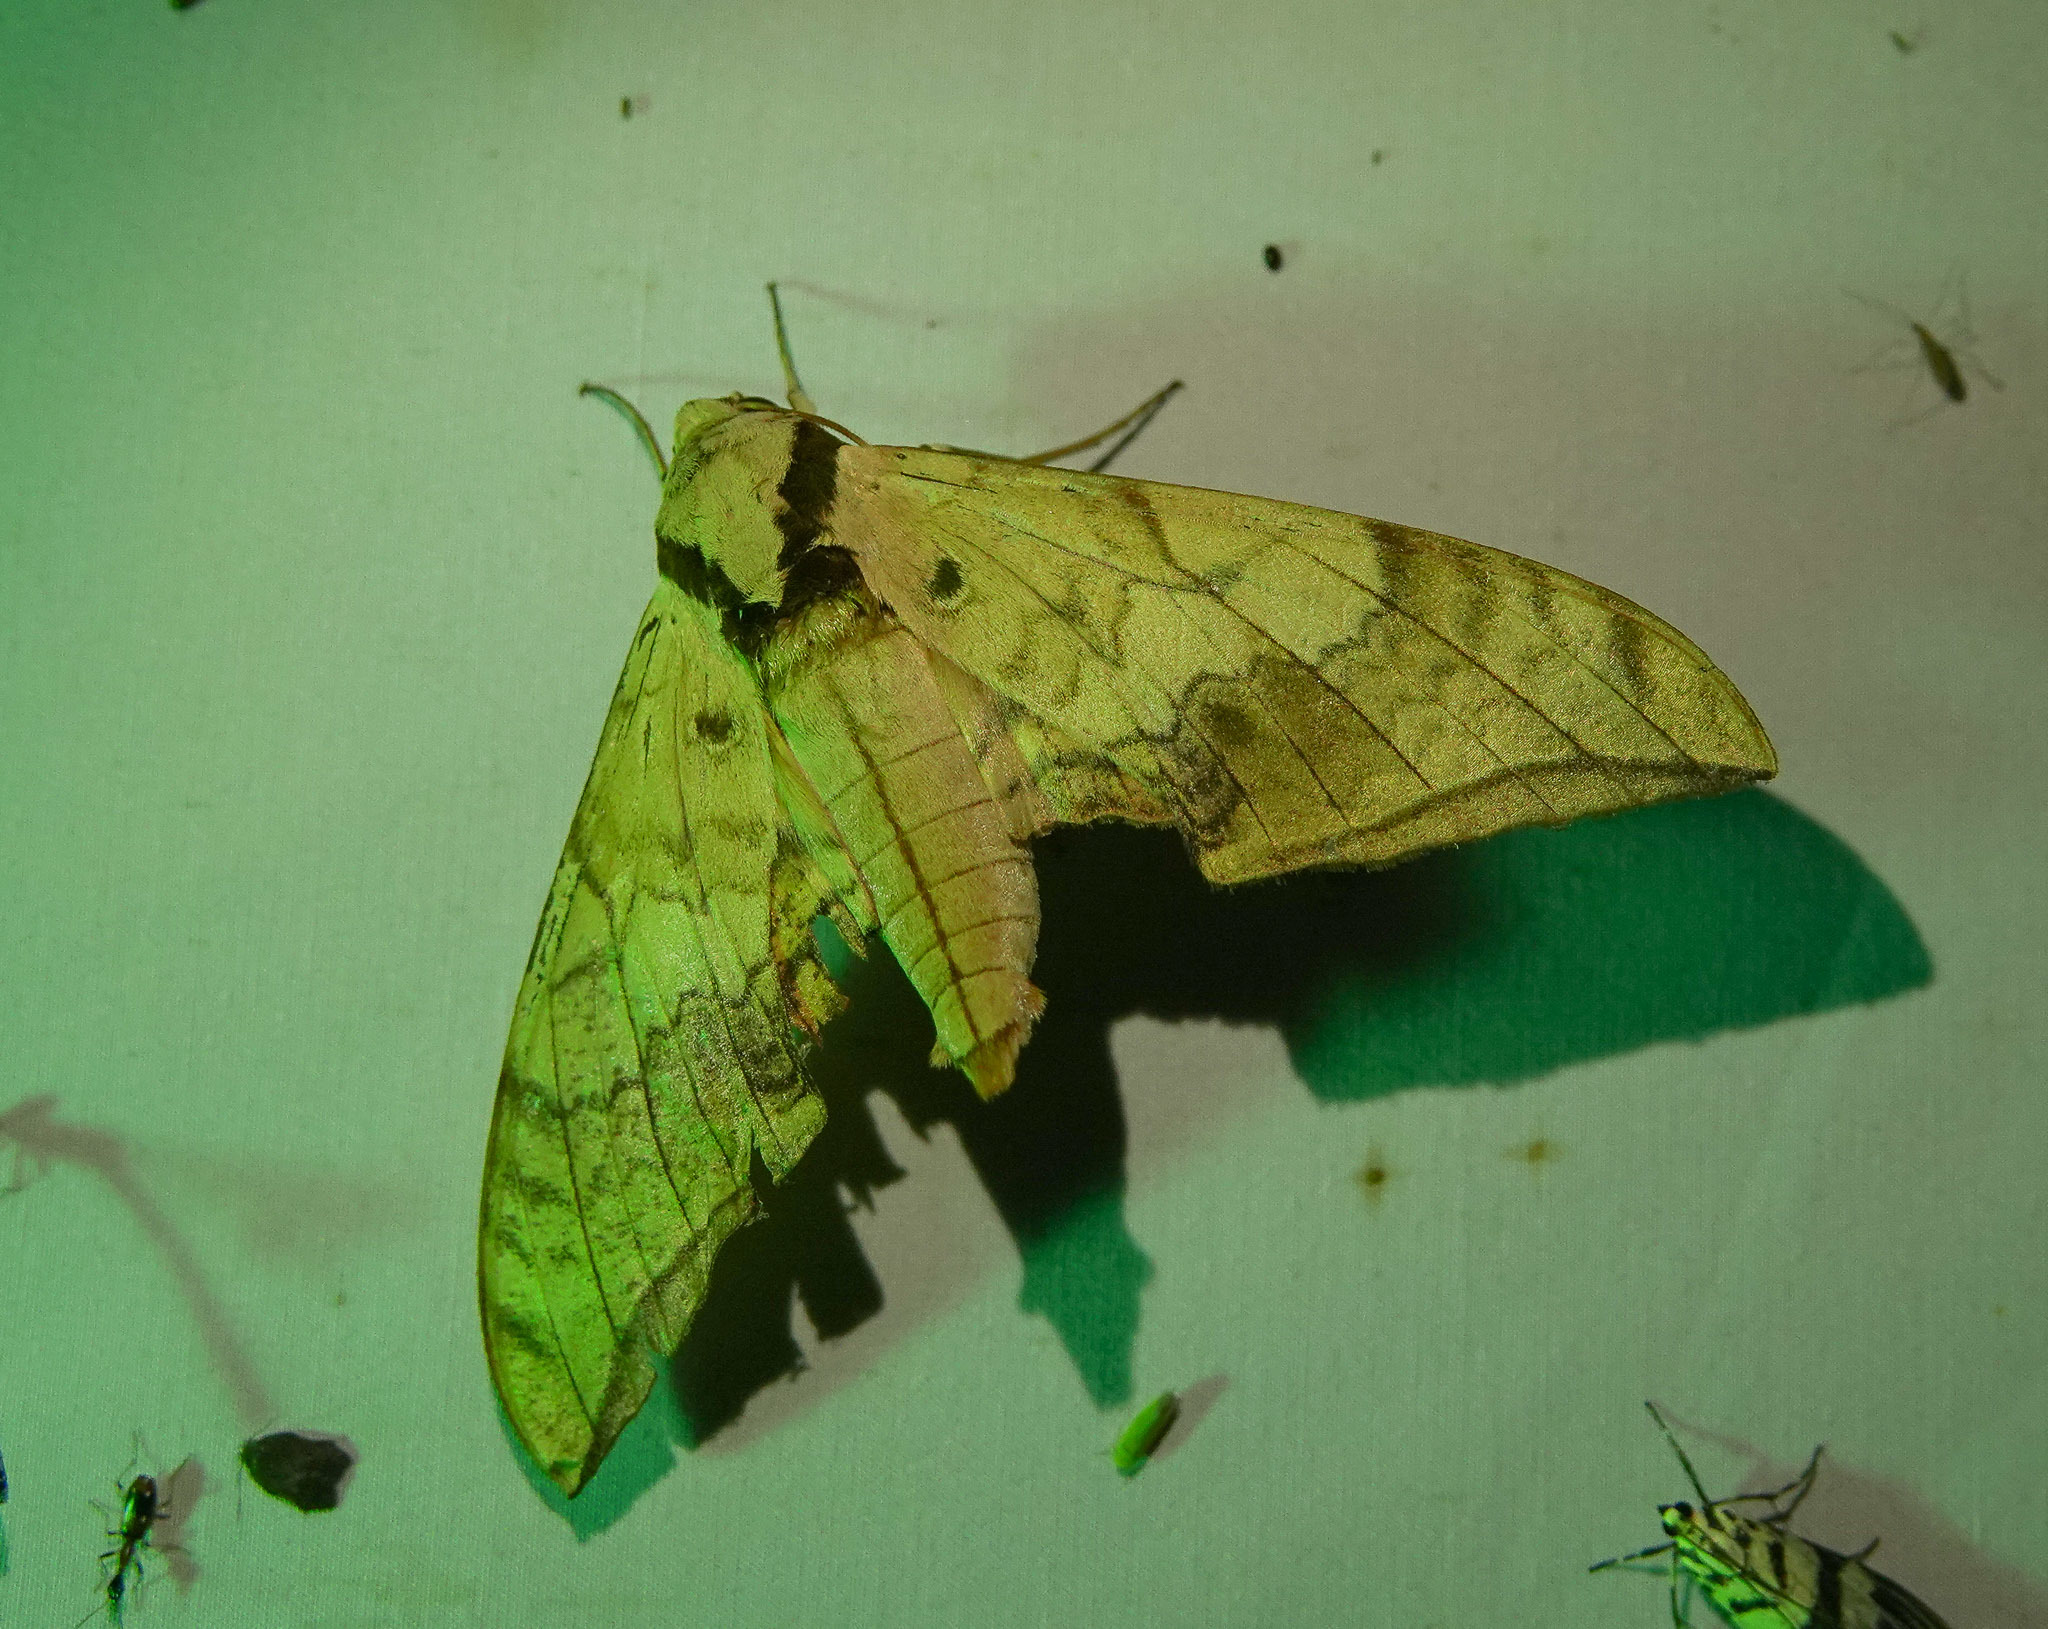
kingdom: Animalia
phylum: Arthropoda
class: Insecta
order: Lepidoptera
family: Sphingidae
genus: Ambulyx
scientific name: Ambulyx substrigilis
